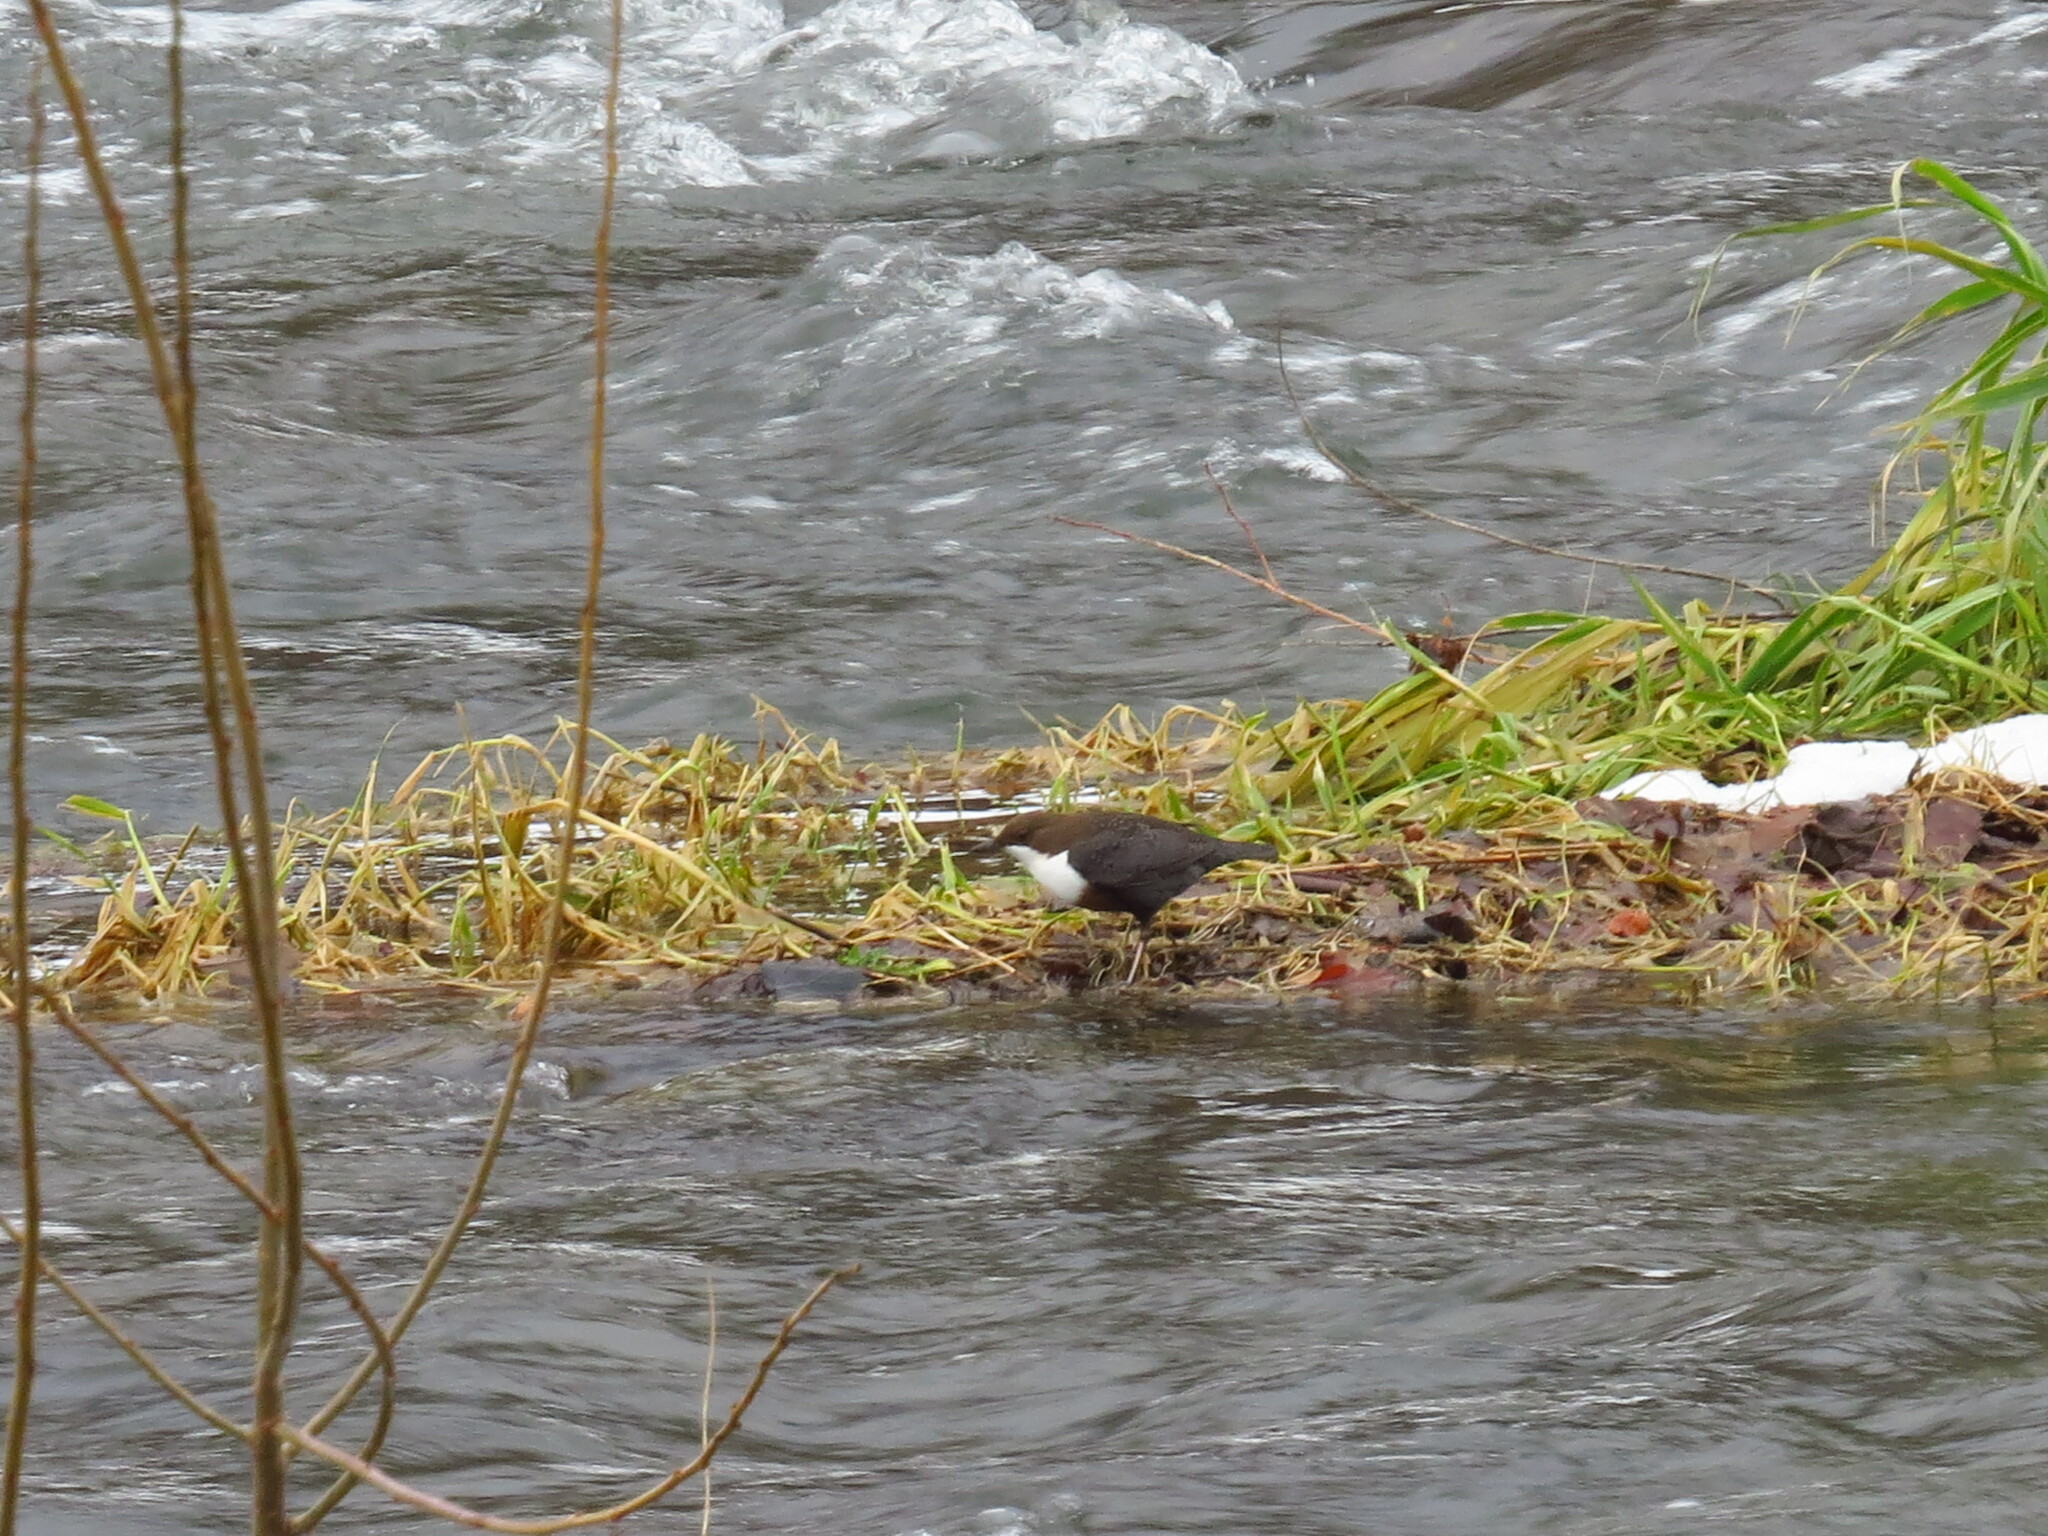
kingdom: Animalia
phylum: Chordata
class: Aves
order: Passeriformes
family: Cinclidae
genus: Cinclus
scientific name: Cinclus cinclus
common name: White-throated dipper
